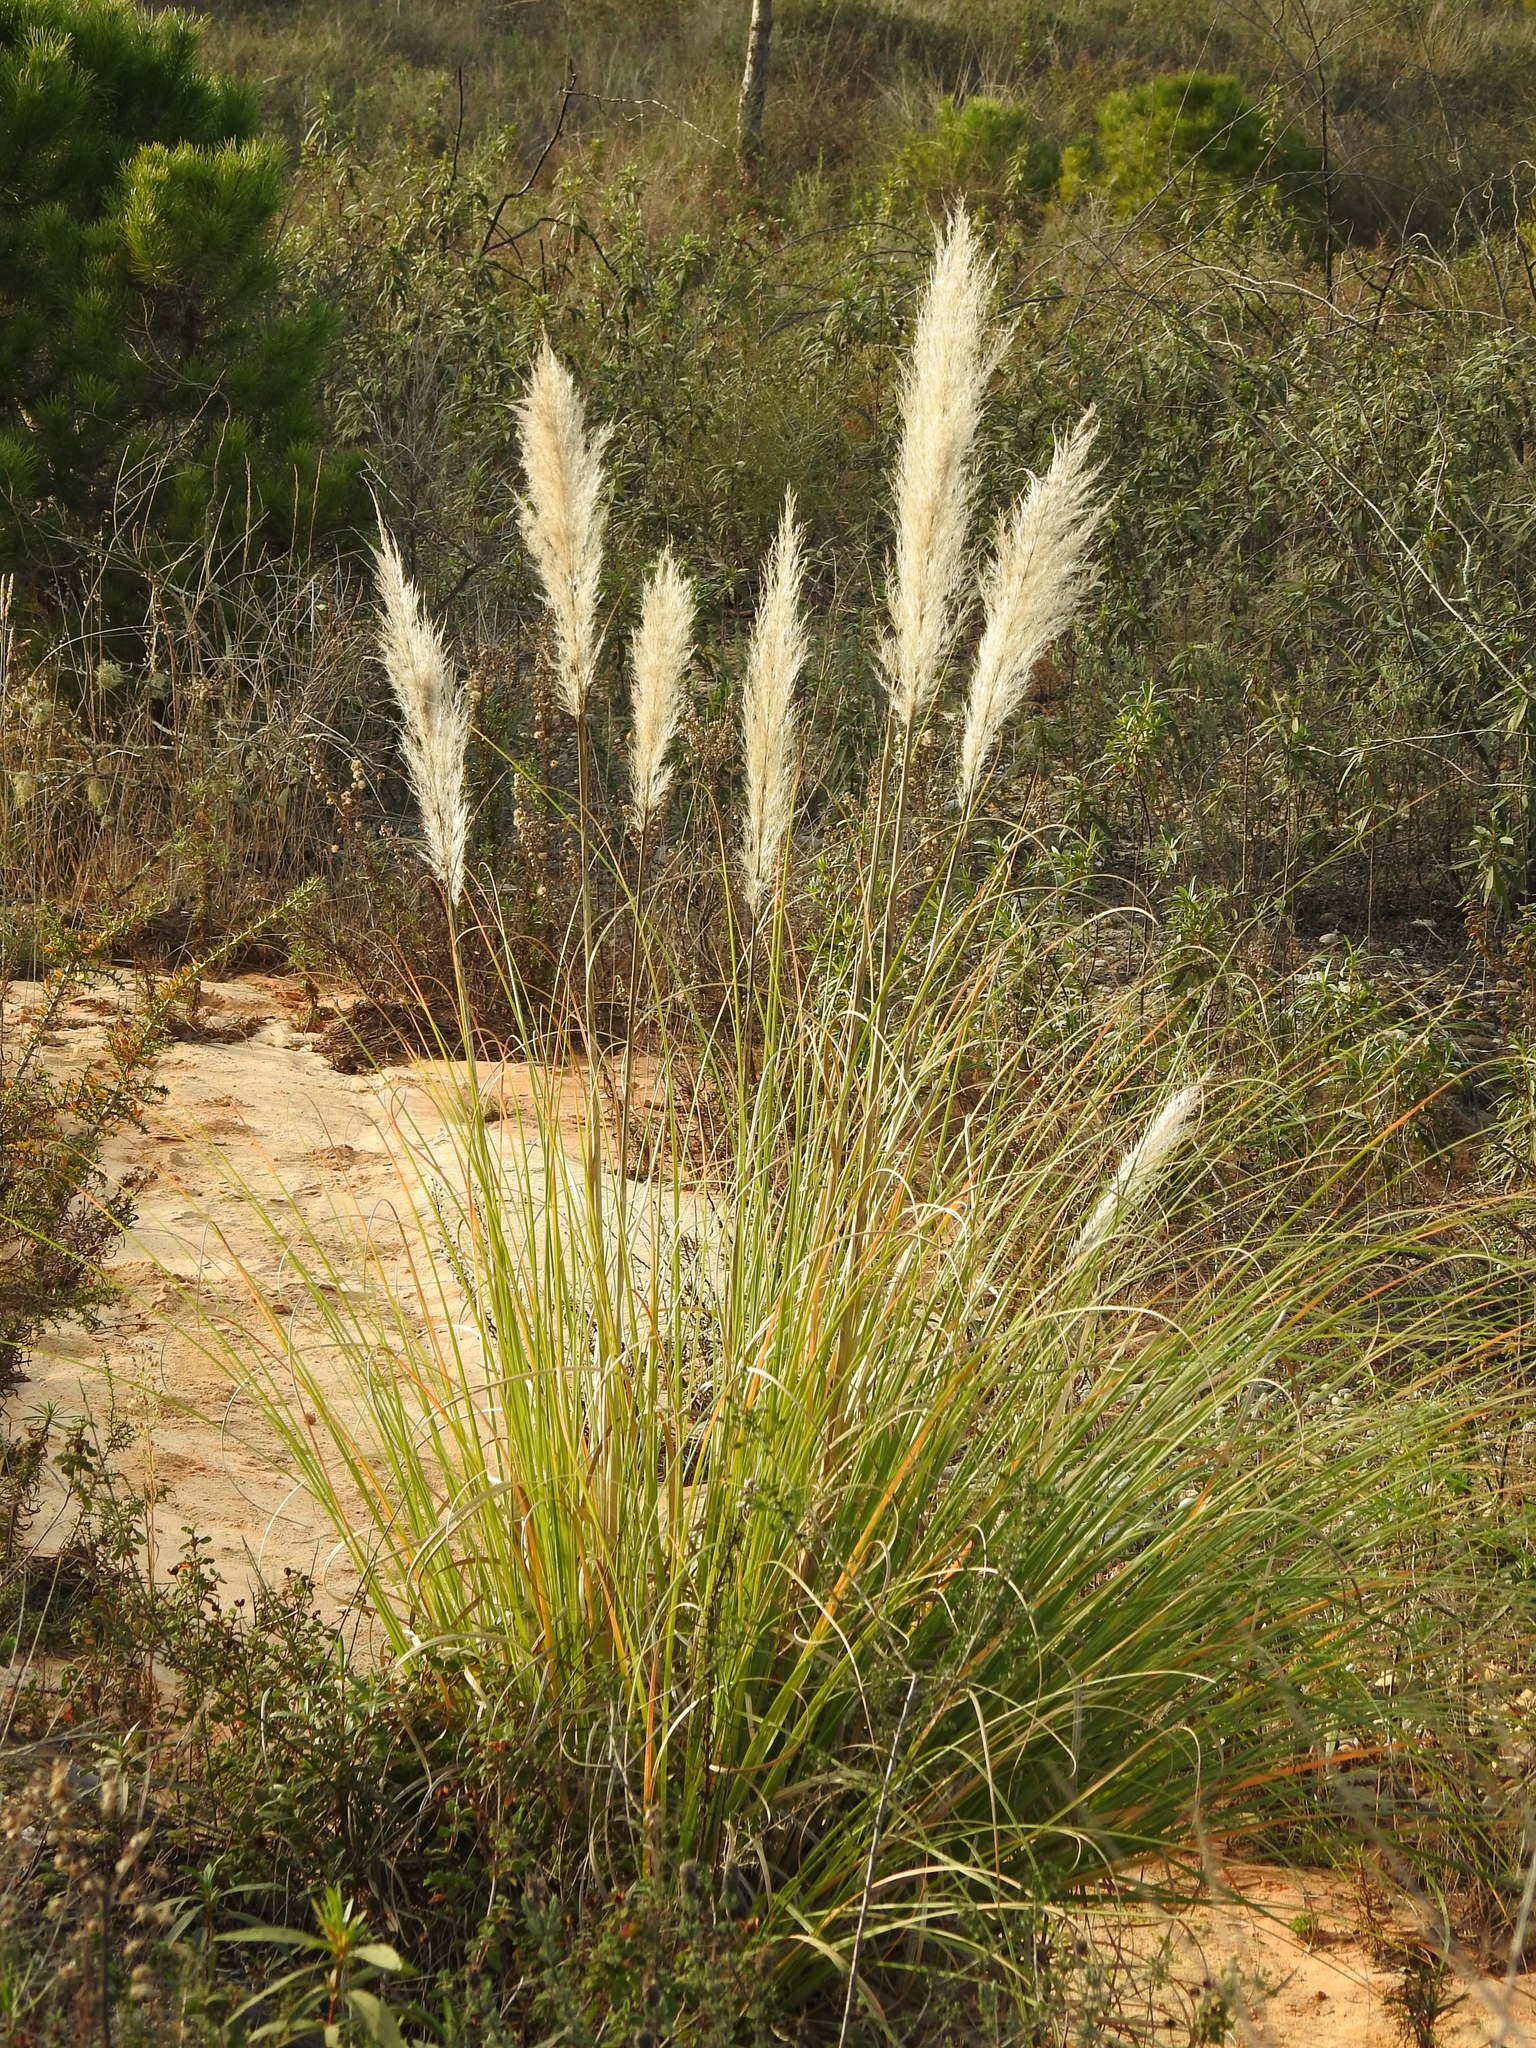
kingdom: Plantae
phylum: Tracheophyta
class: Liliopsida
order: Poales
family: Poaceae
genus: Cortaderia
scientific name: Cortaderia selloana
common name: Uruguayan pampas grass
